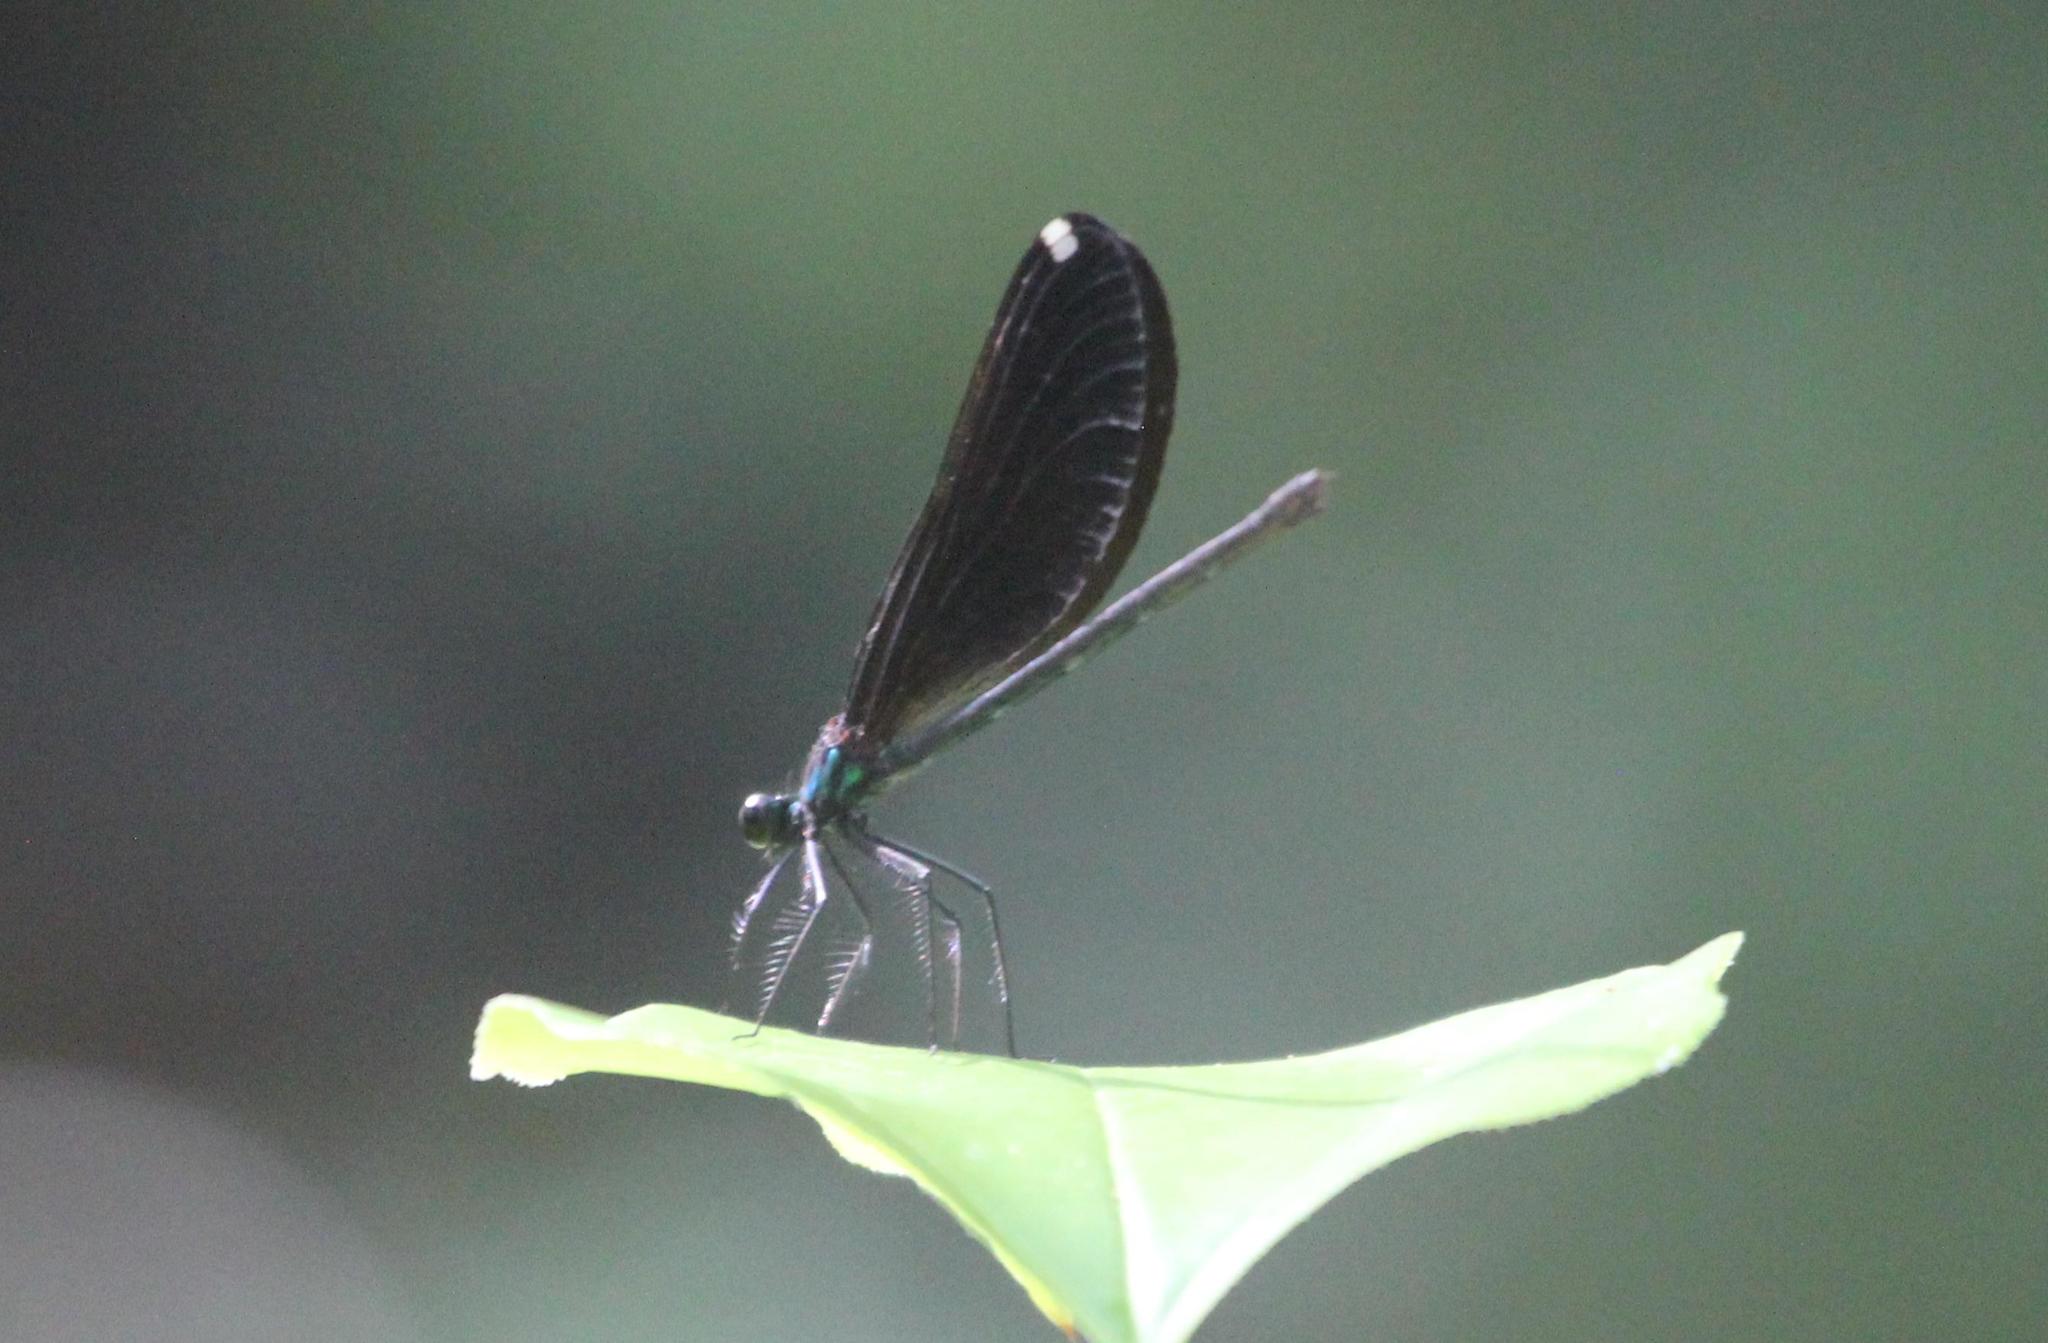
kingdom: Animalia
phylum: Arthropoda
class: Insecta
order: Odonata
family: Calopterygidae
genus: Calopteryx
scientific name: Calopteryx maculata
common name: Ebony jewelwing
